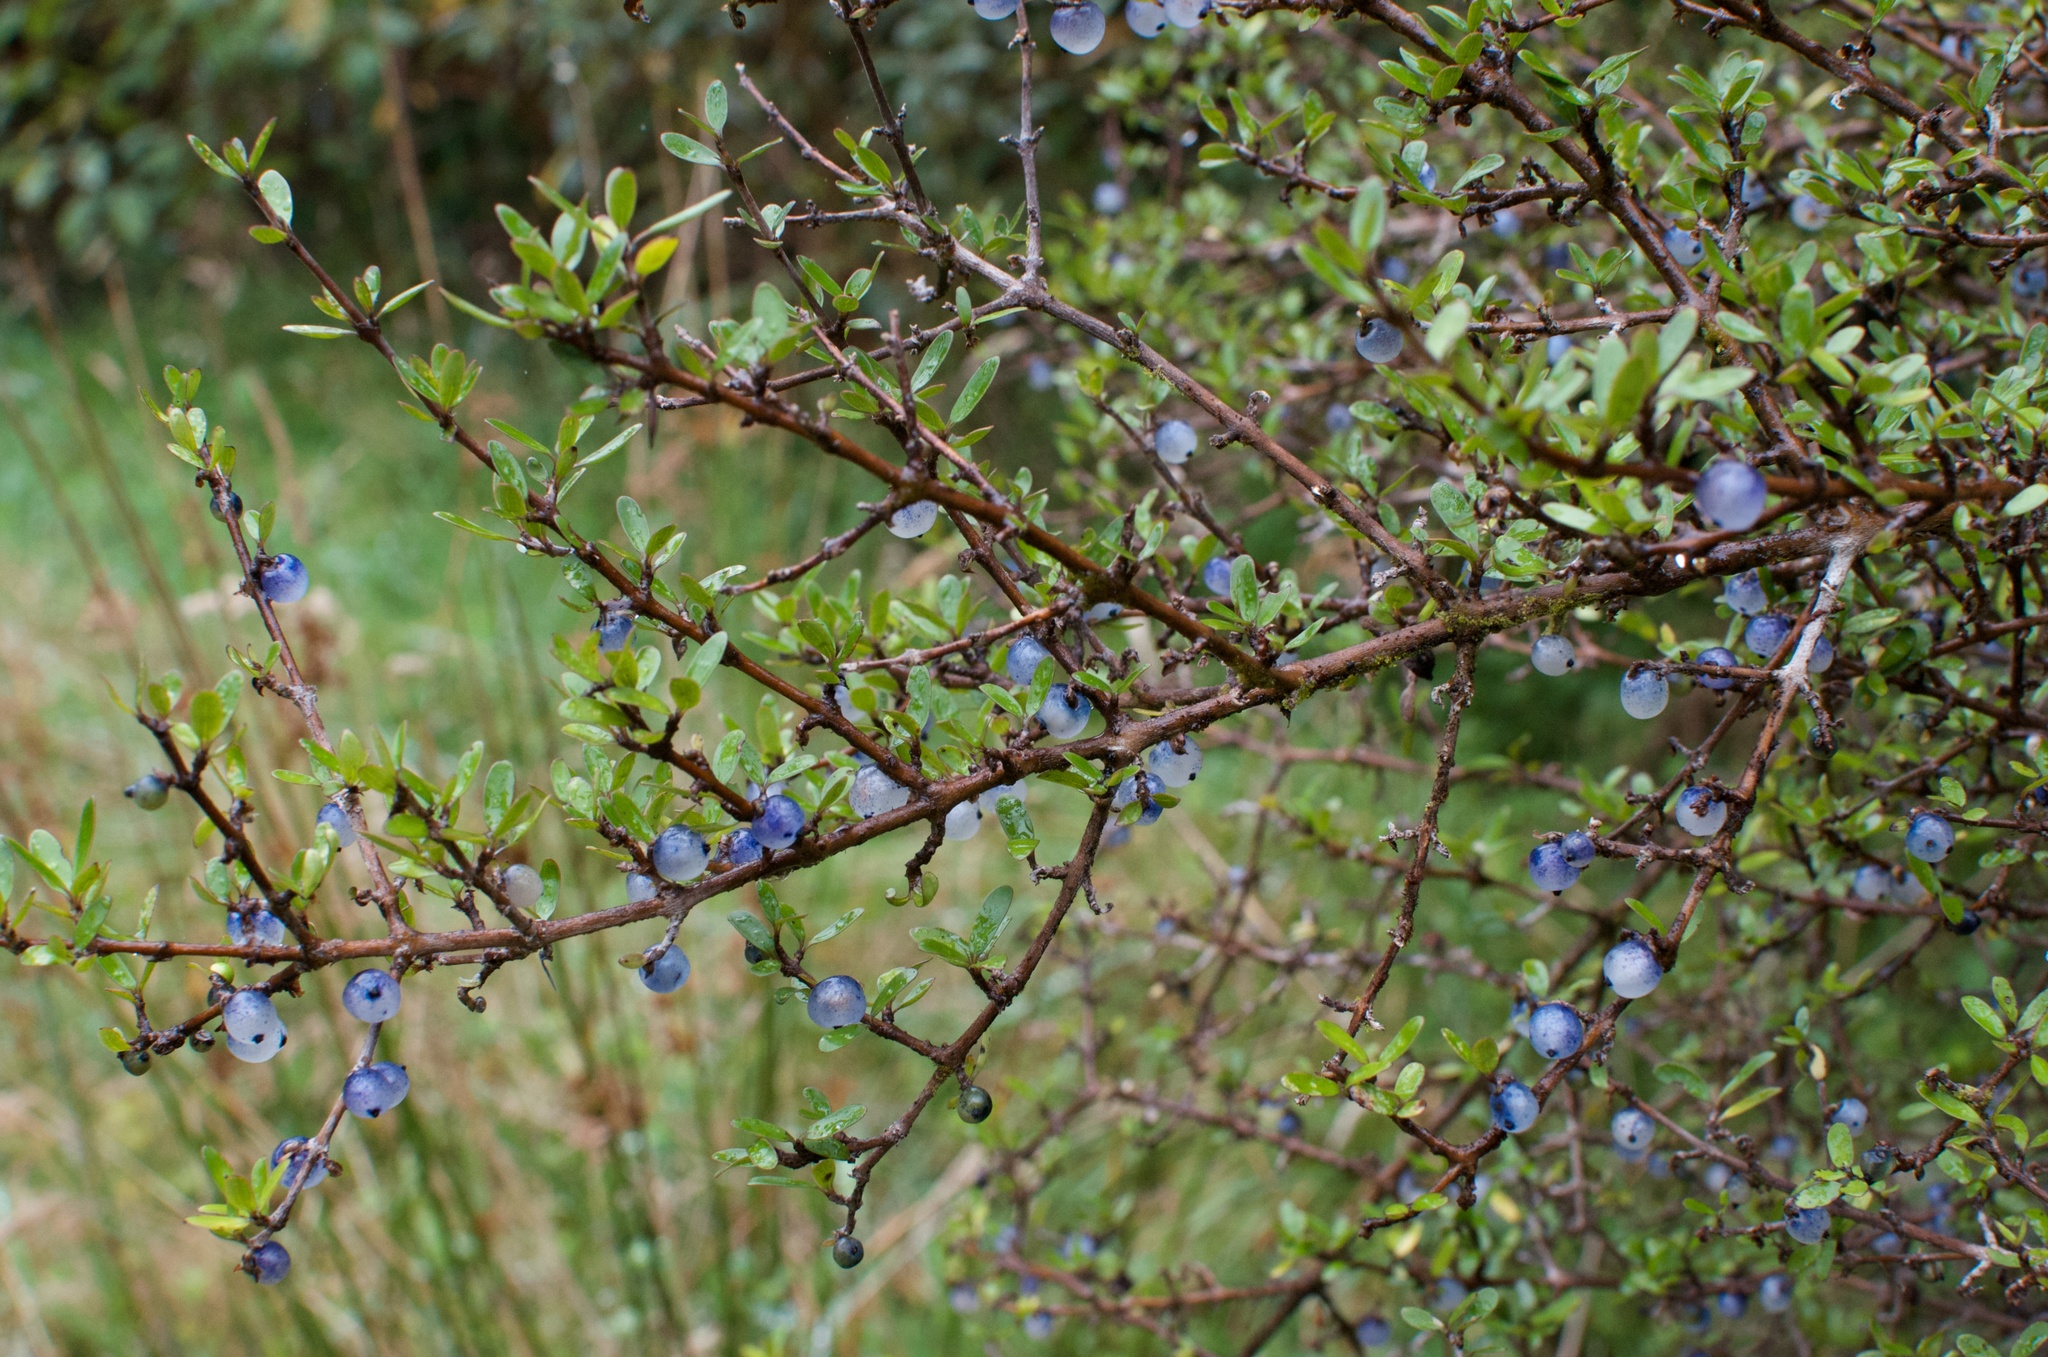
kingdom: Plantae
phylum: Tracheophyta
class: Magnoliopsida
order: Gentianales
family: Rubiaceae
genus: Coprosma
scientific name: Coprosma propinqua
